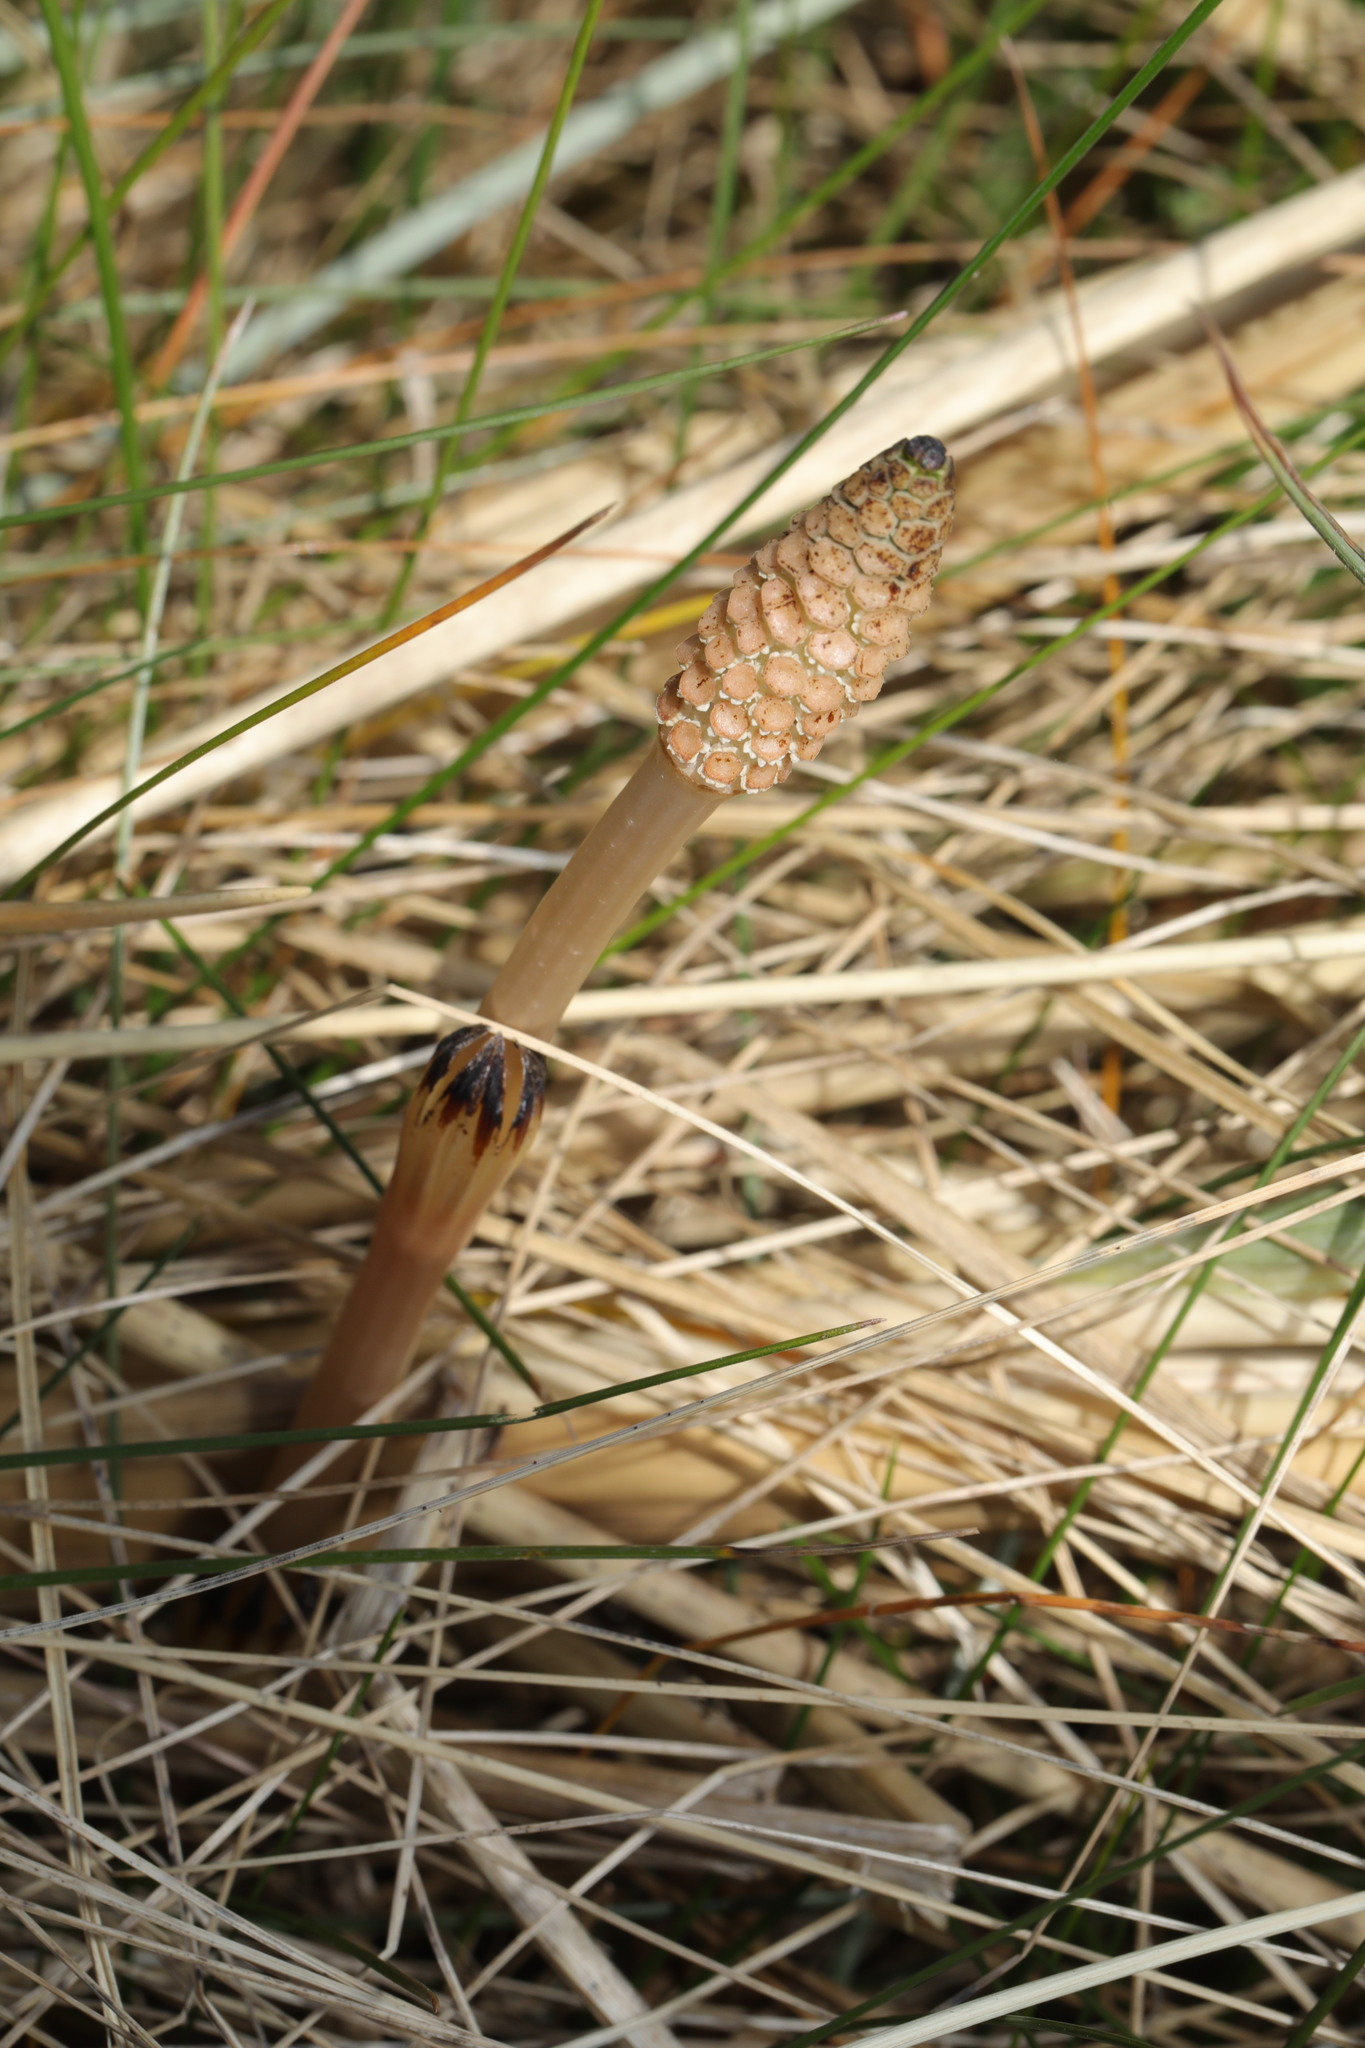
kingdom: Plantae
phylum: Tracheophyta
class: Polypodiopsida
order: Equisetales
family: Equisetaceae
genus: Equisetum
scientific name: Equisetum arvense
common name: Field horsetail
